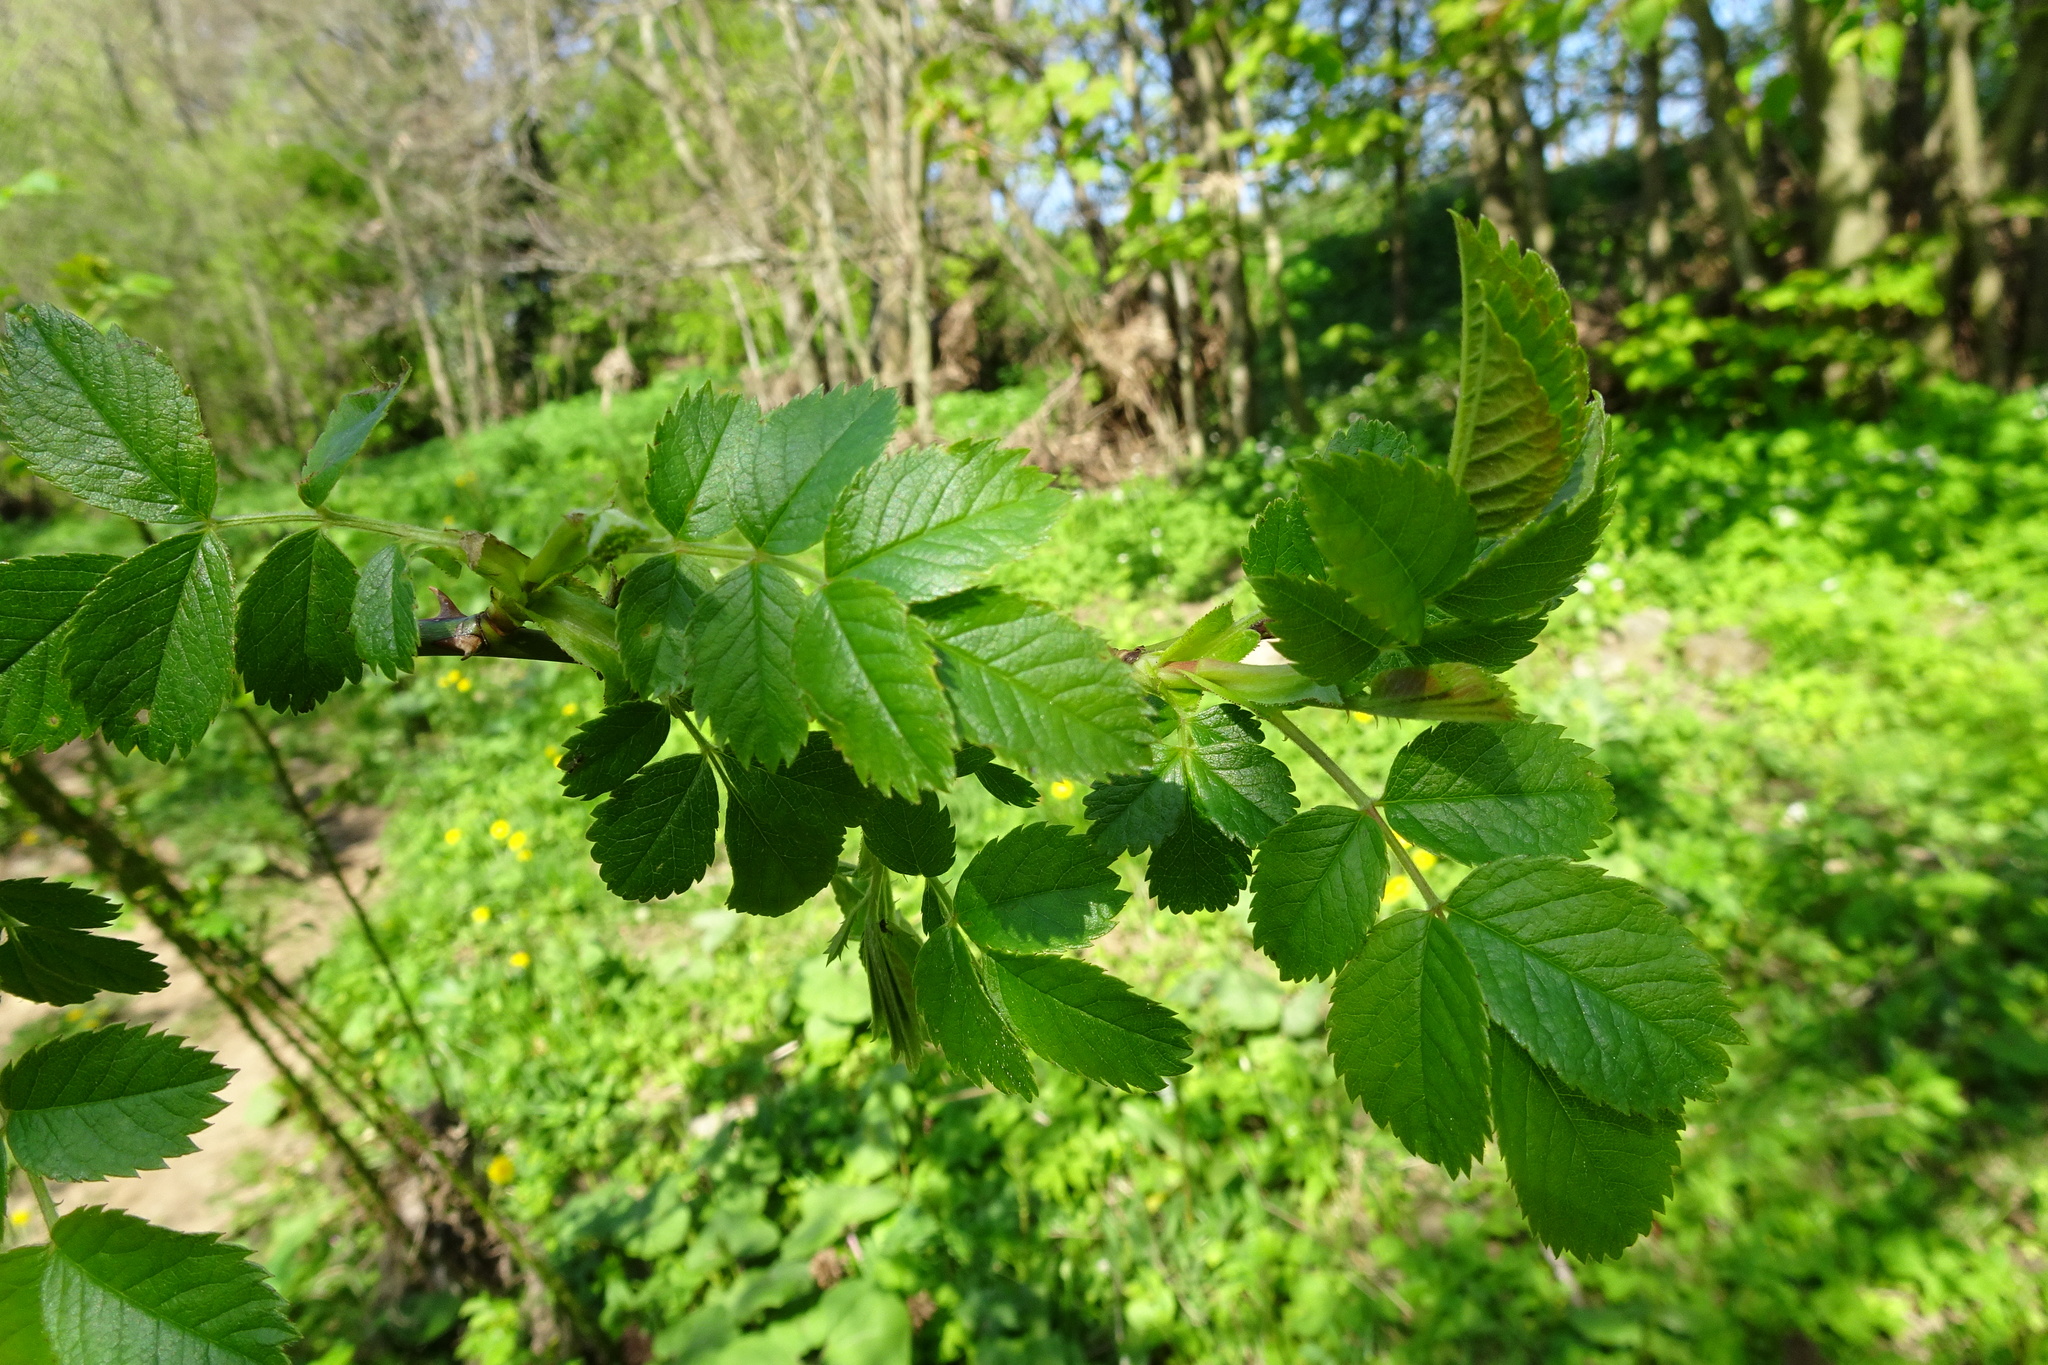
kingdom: Plantae
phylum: Tracheophyta
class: Magnoliopsida
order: Rosales
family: Rosaceae
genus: Rosa
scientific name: Rosa canina
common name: Dog rose
